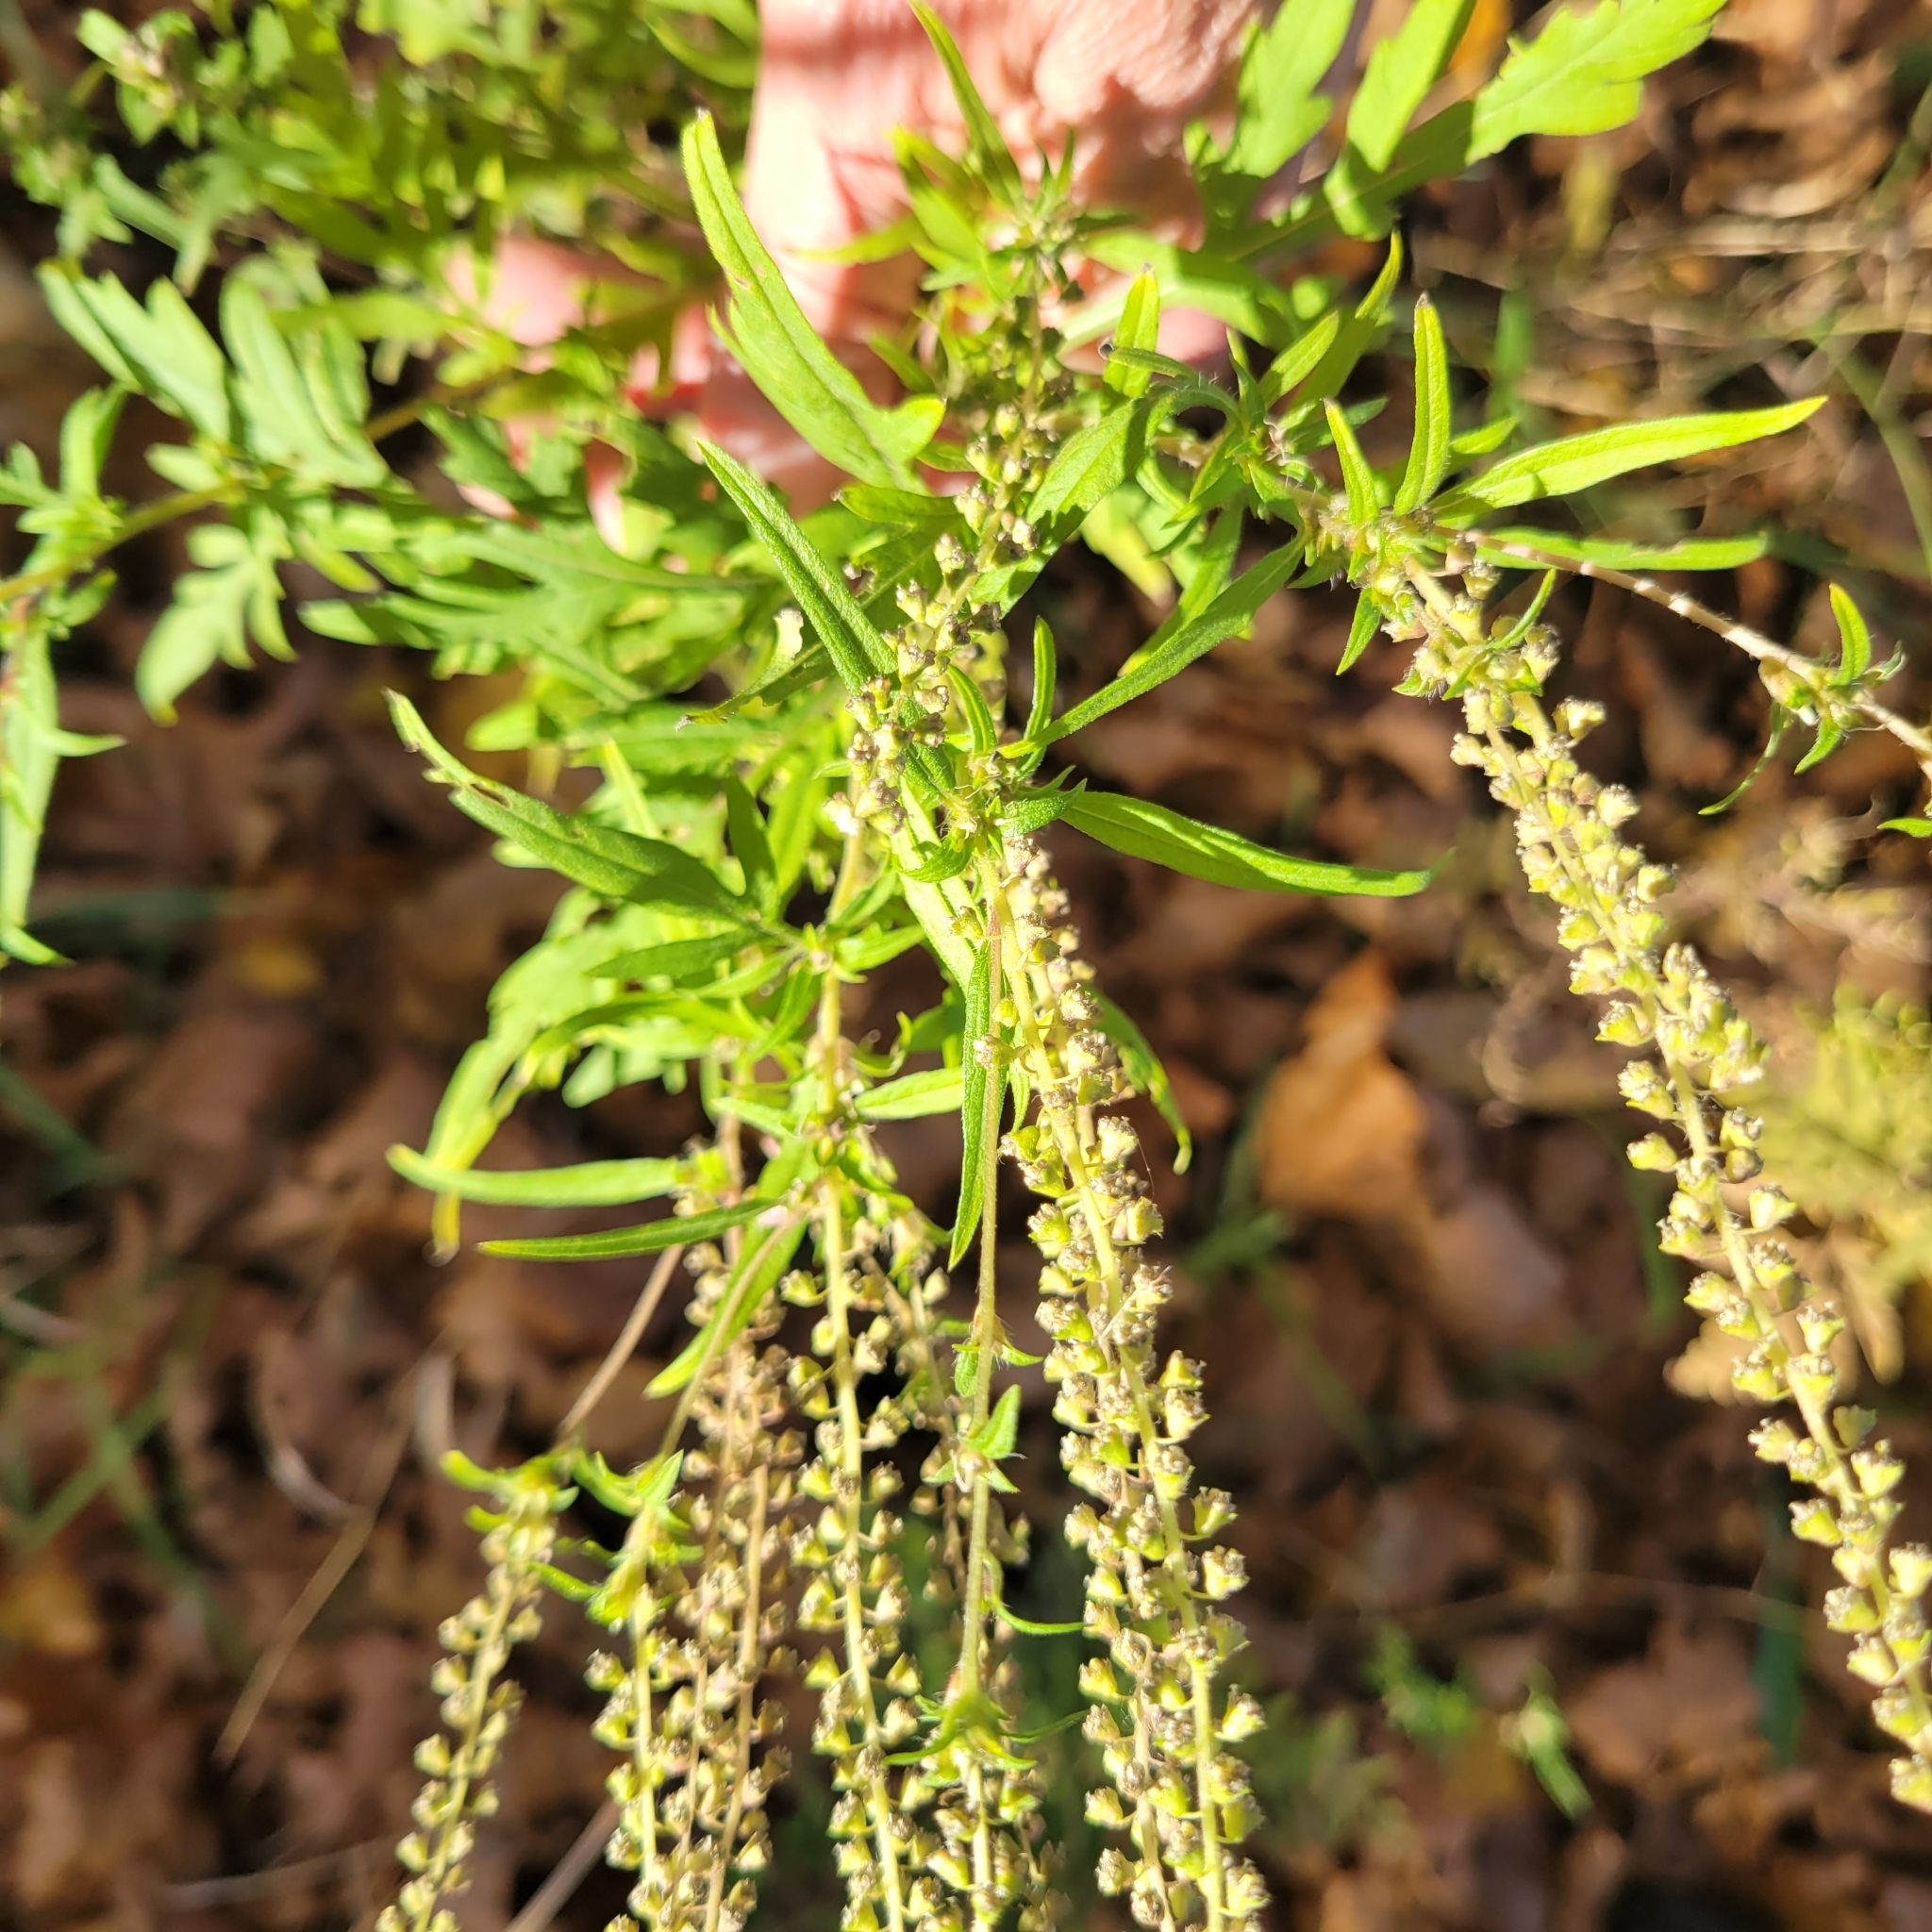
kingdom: Plantae
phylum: Tracheophyta
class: Magnoliopsida
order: Asterales
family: Asteraceae
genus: Ambrosia
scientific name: Ambrosia artemisiifolia
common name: Annual ragweed
